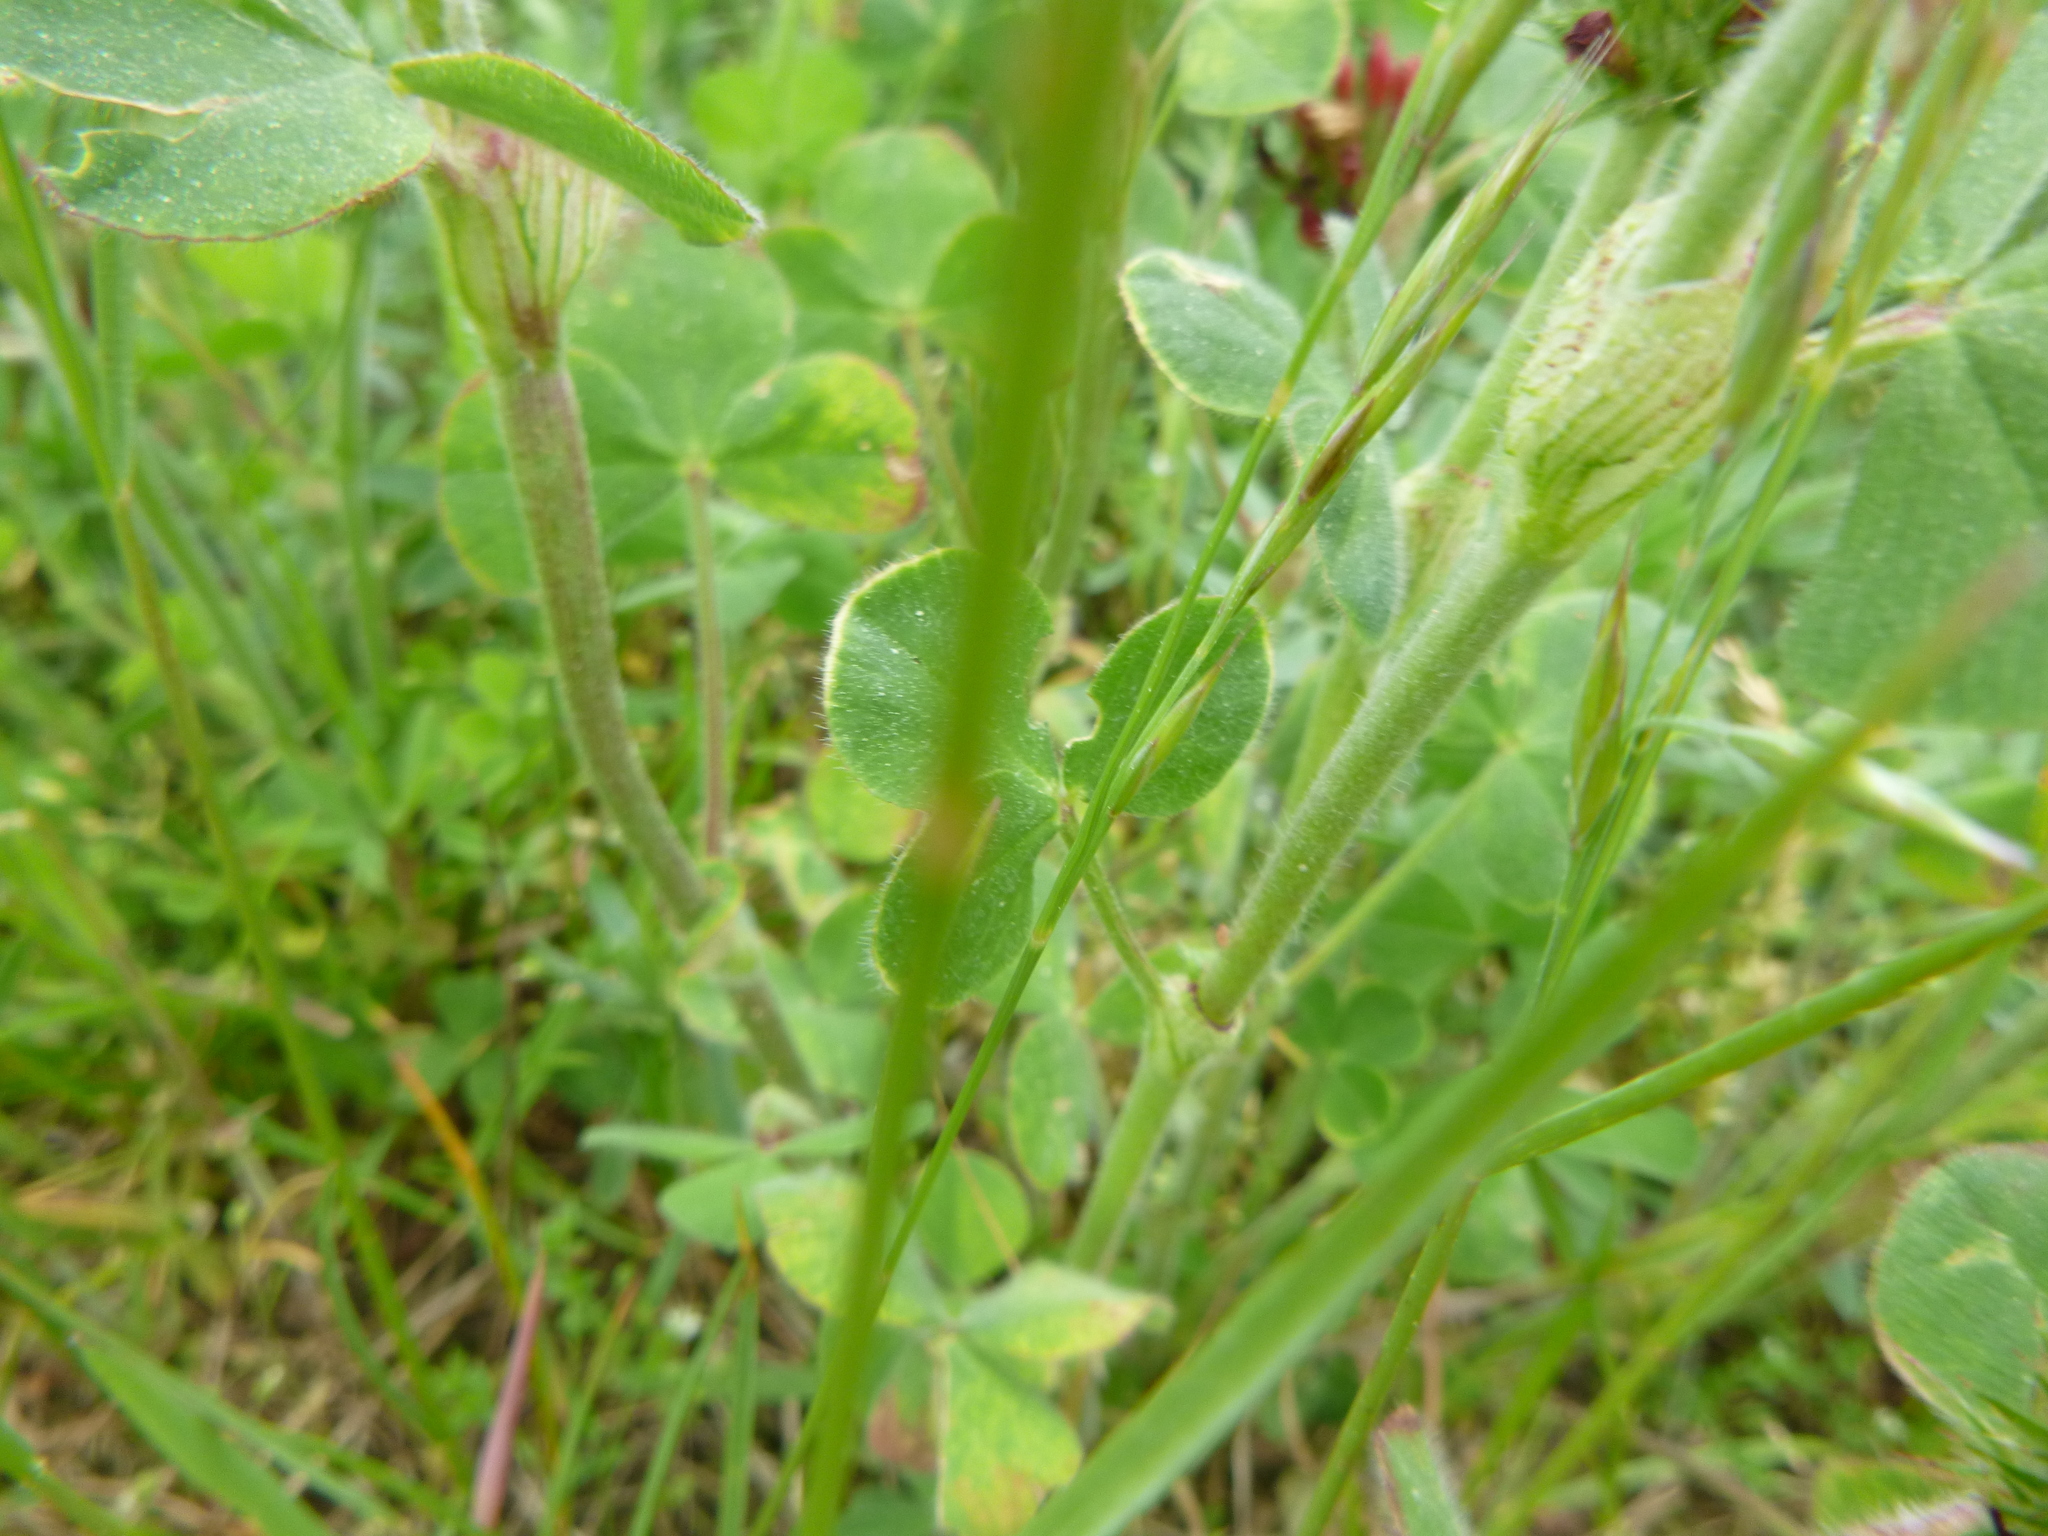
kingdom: Plantae
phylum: Tracheophyta
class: Magnoliopsida
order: Fabales
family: Fabaceae
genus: Trifolium
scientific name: Trifolium incarnatum
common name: Crimson clover
